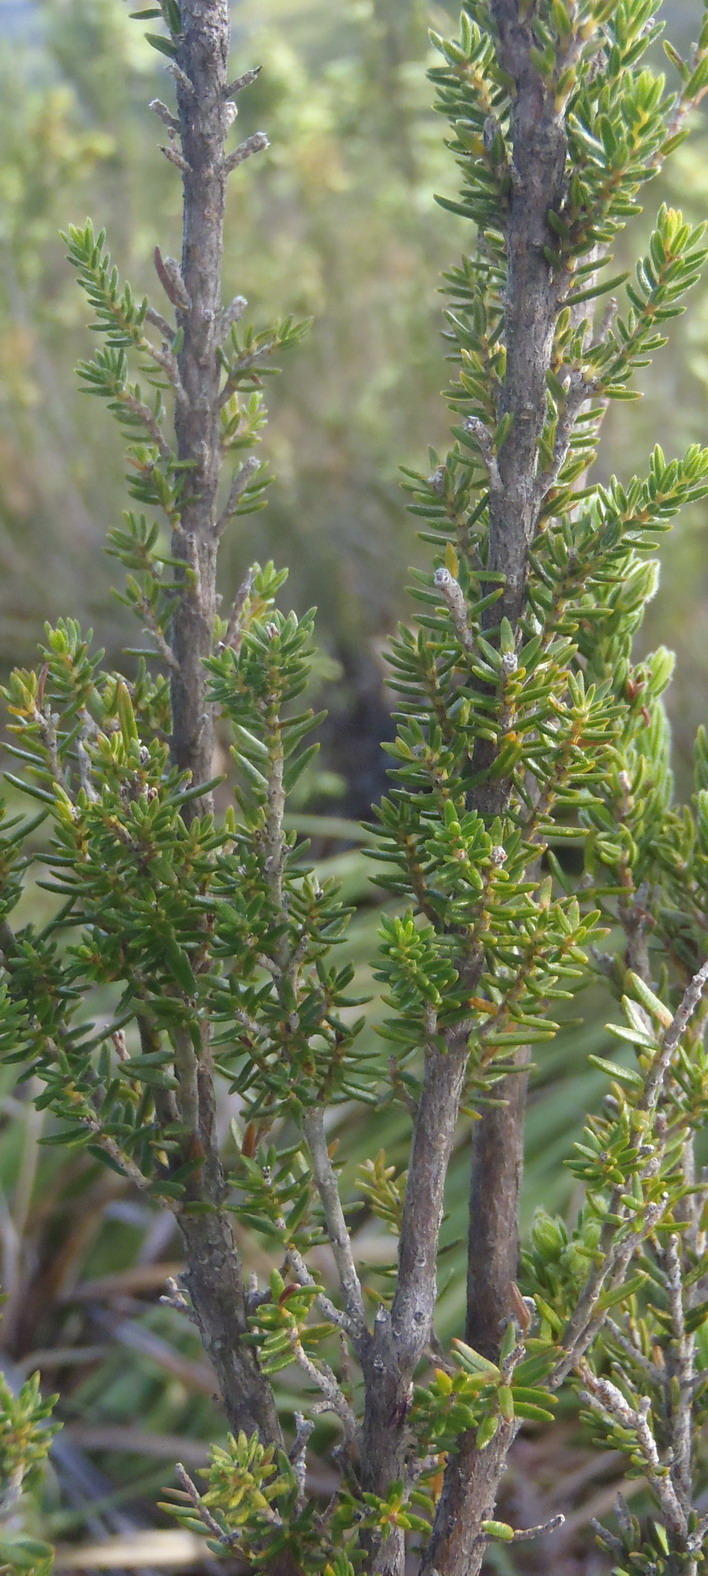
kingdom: Plantae
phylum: Tracheophyta
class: Magnoliopsida
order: Ericales
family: Ericaceae
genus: Erica
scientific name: Erica discolor
